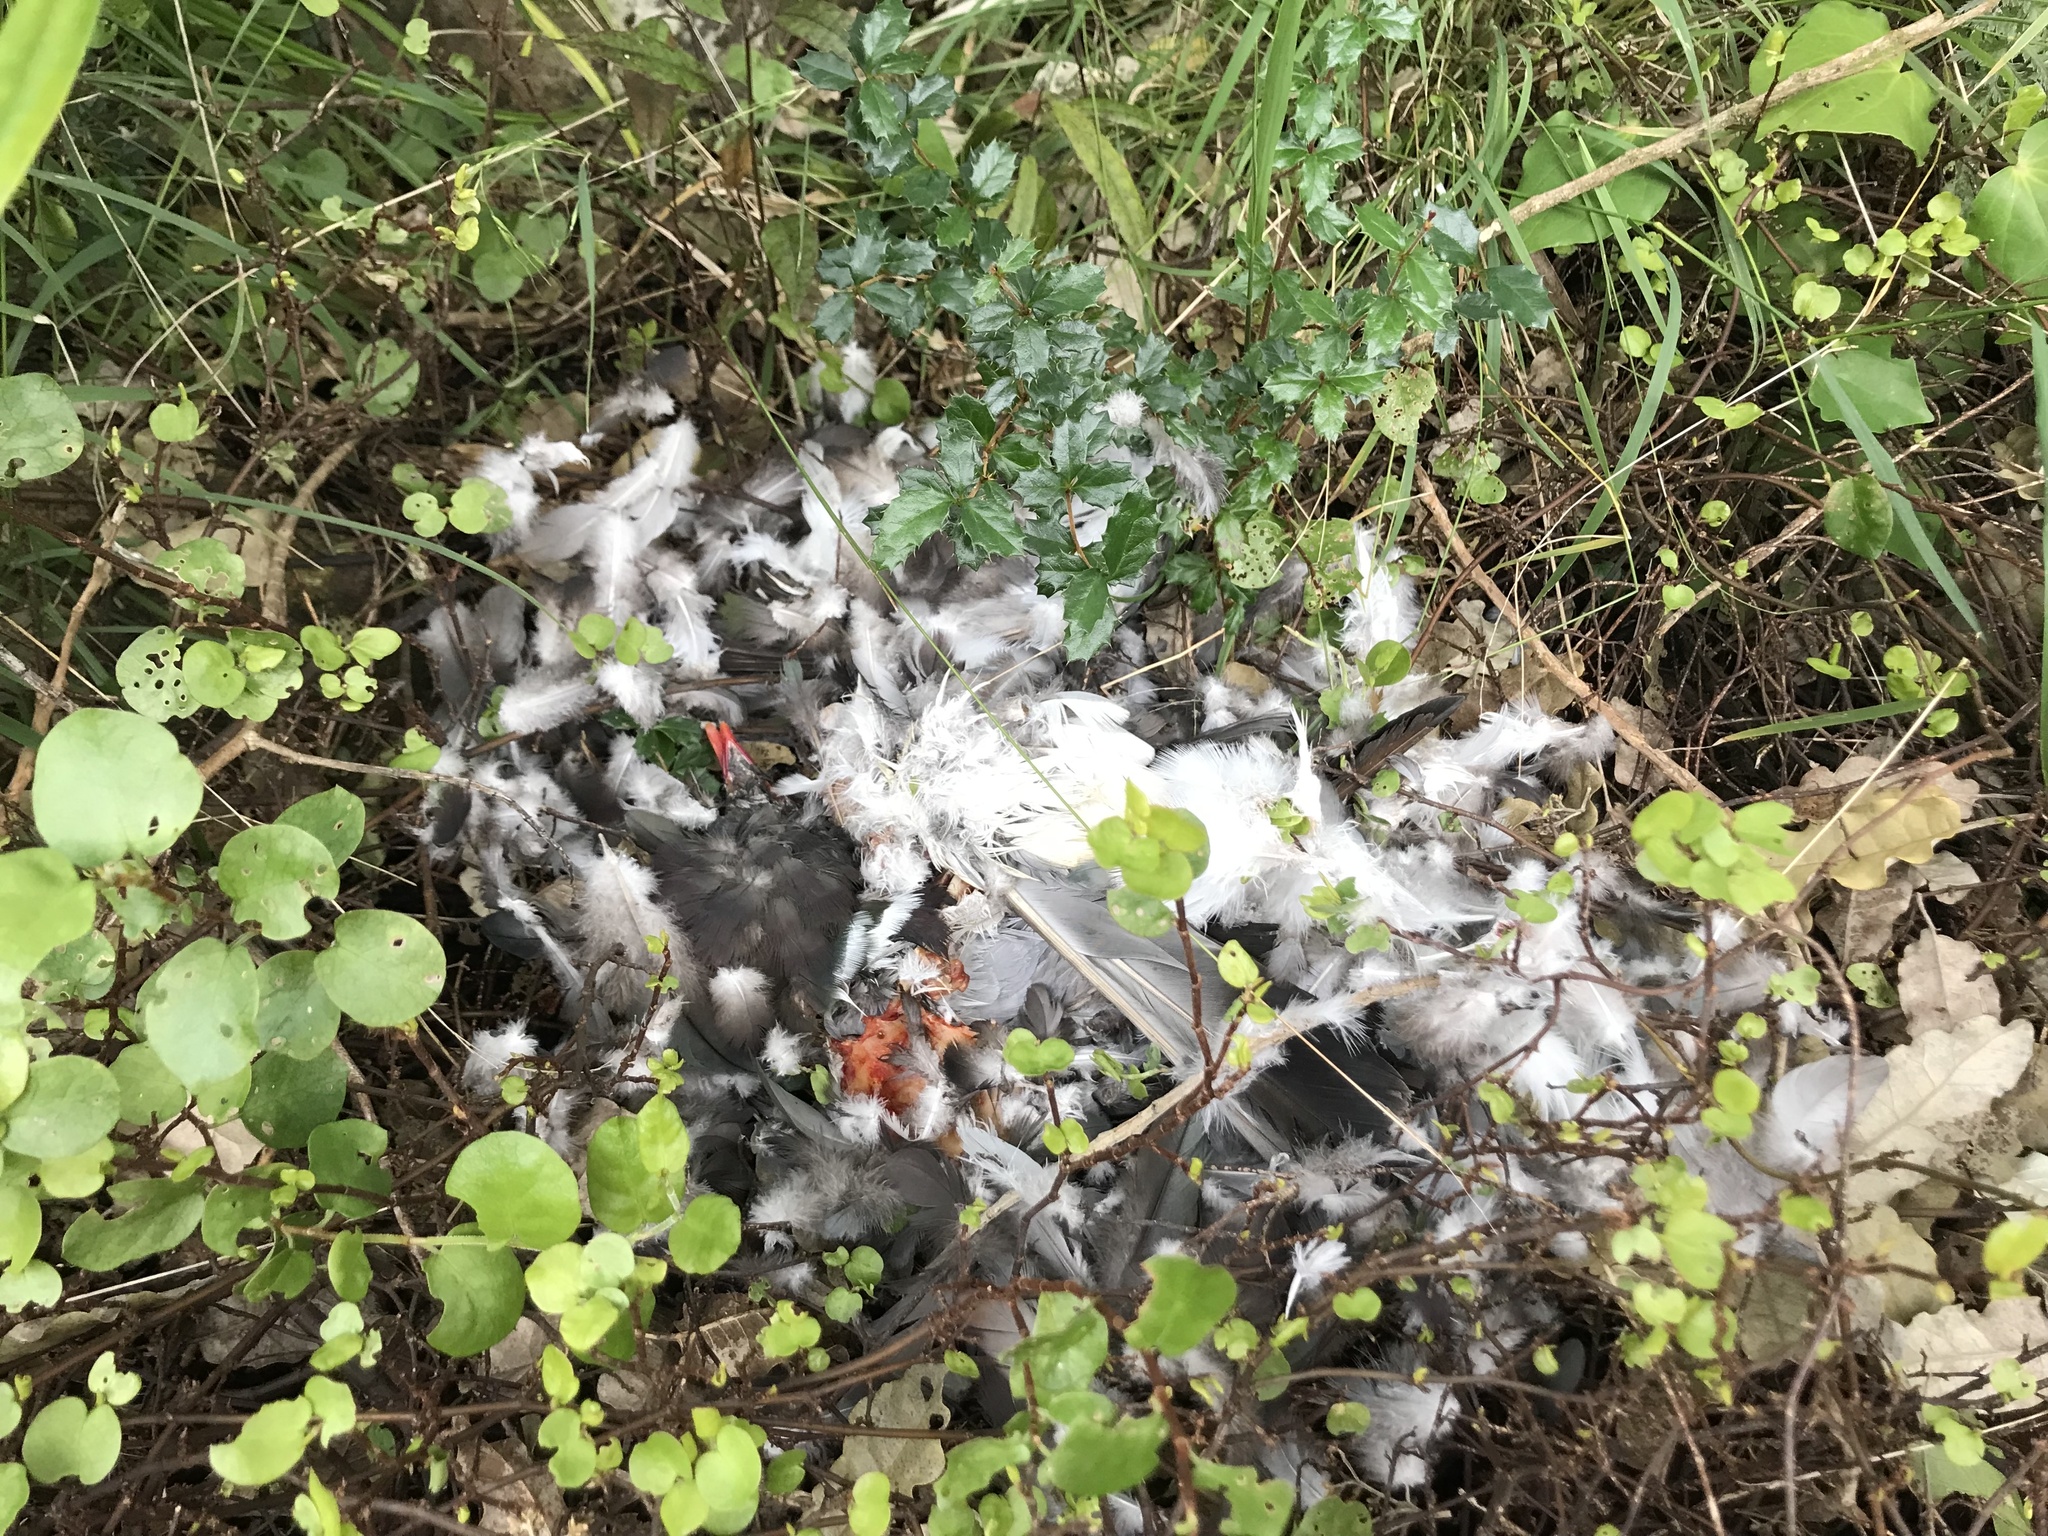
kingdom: Animalia
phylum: Chordata
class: Aves
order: Columbiformes
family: Columbidae
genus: Hemiphaga
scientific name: Hemiphaga novaeseelandiae
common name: New zealand pigeon
